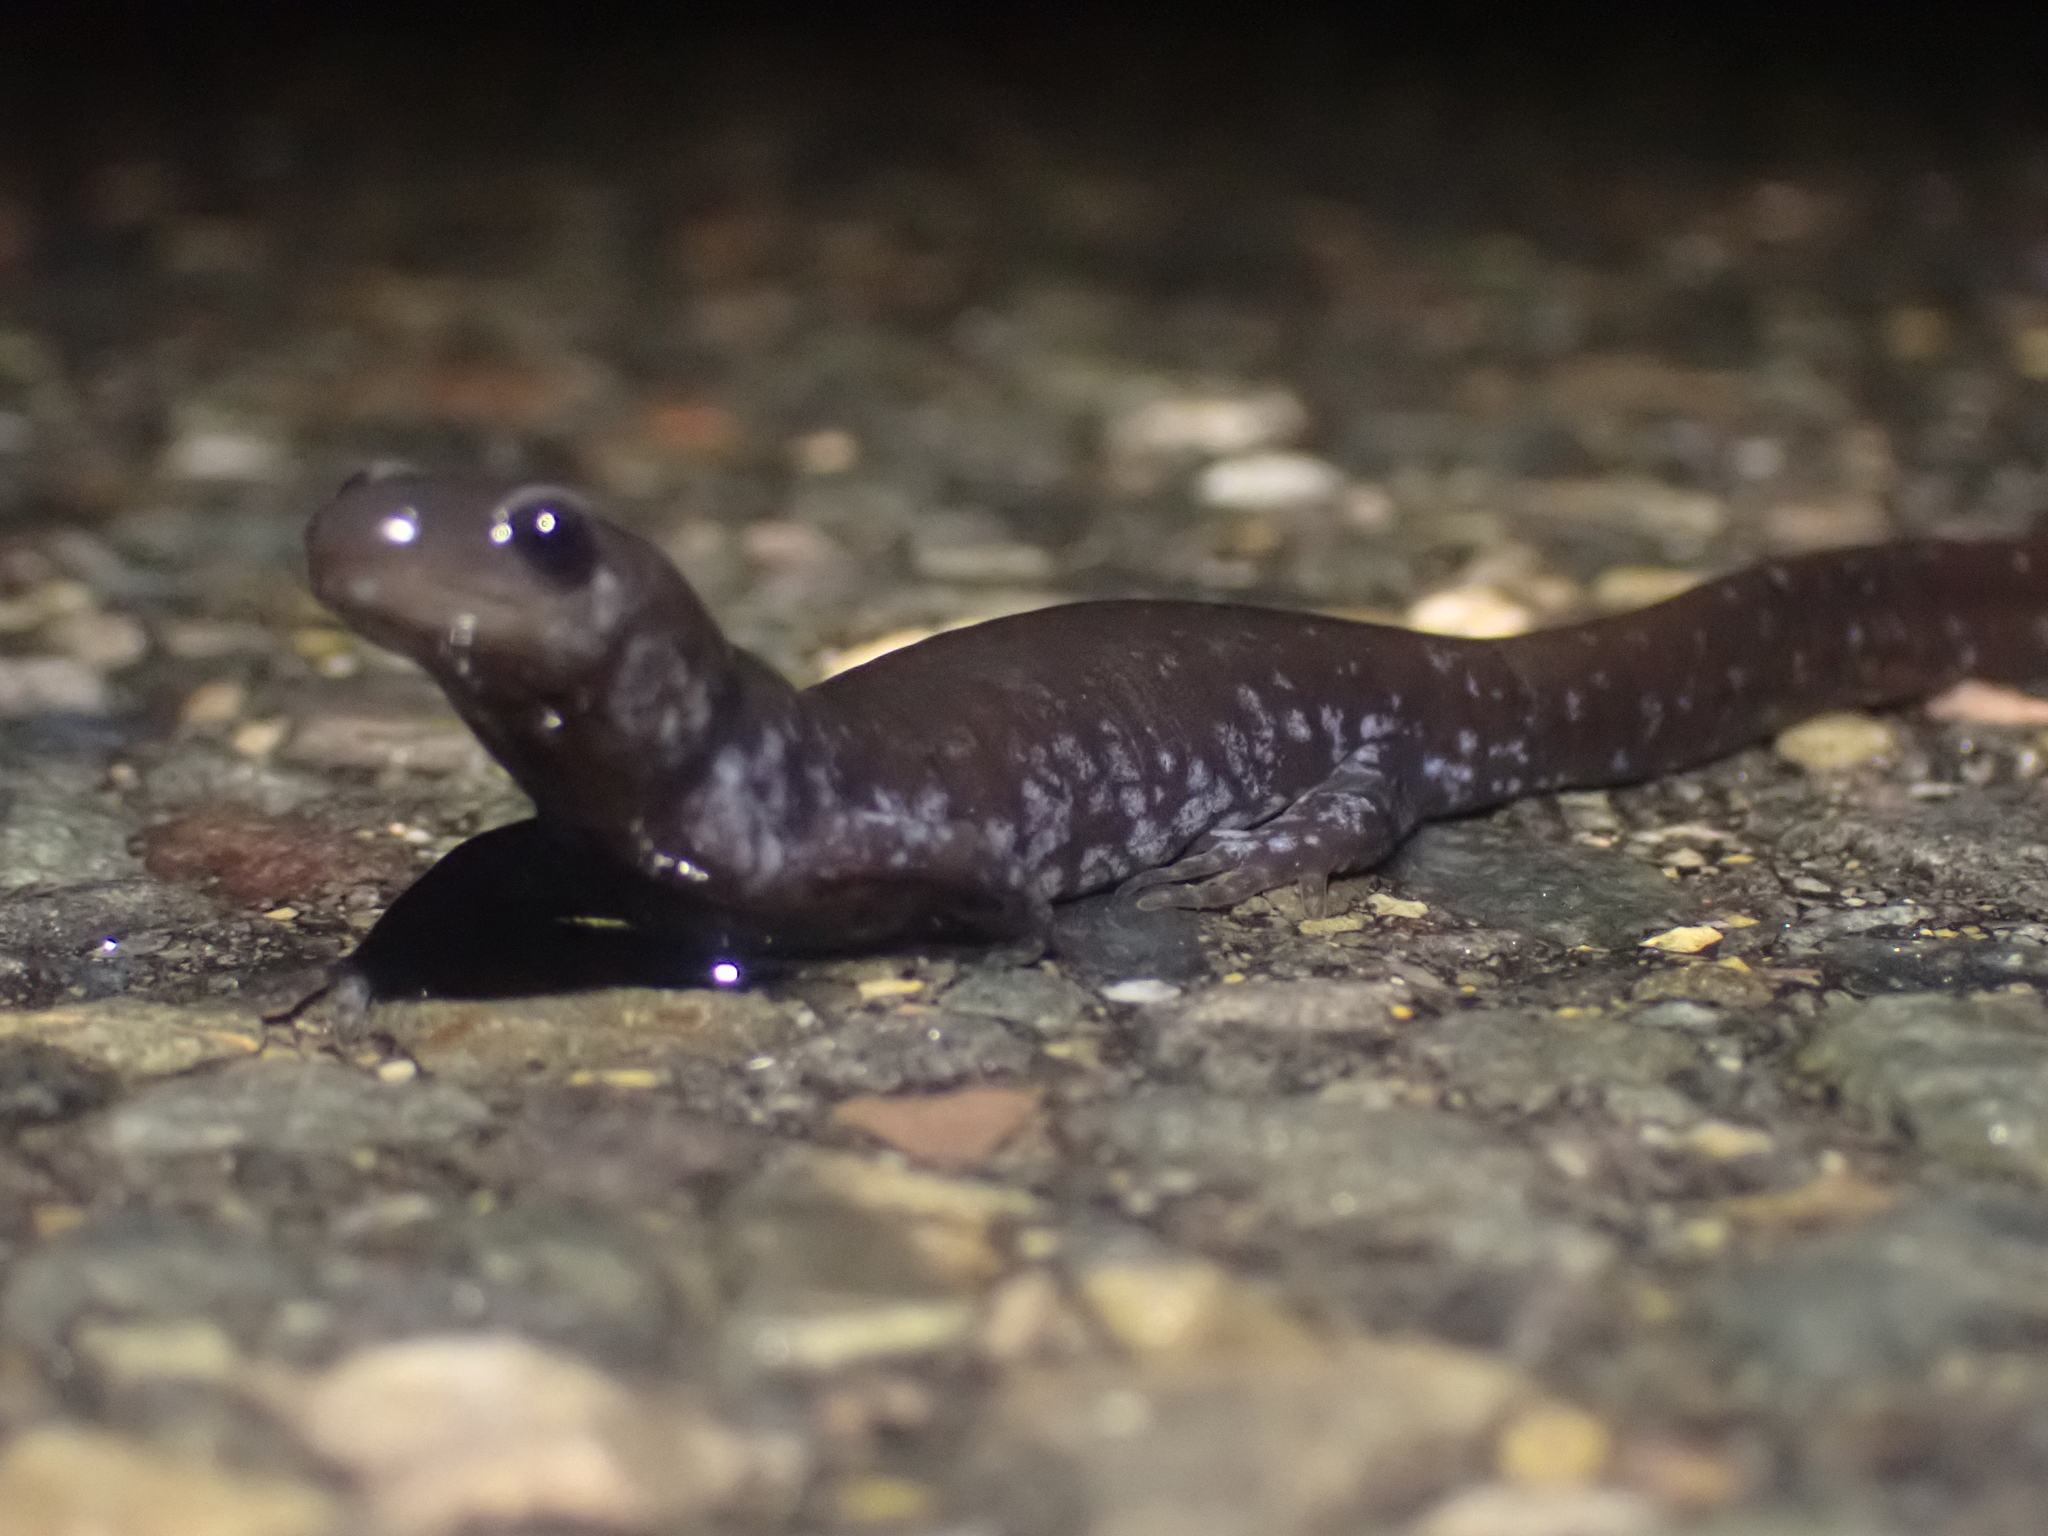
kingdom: Animalia
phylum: Chordata
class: Amphibia
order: Caudata
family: Ambystomatidae
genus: Ambystoma
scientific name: Ambystoma laterale
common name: Blue-spotted salamander
